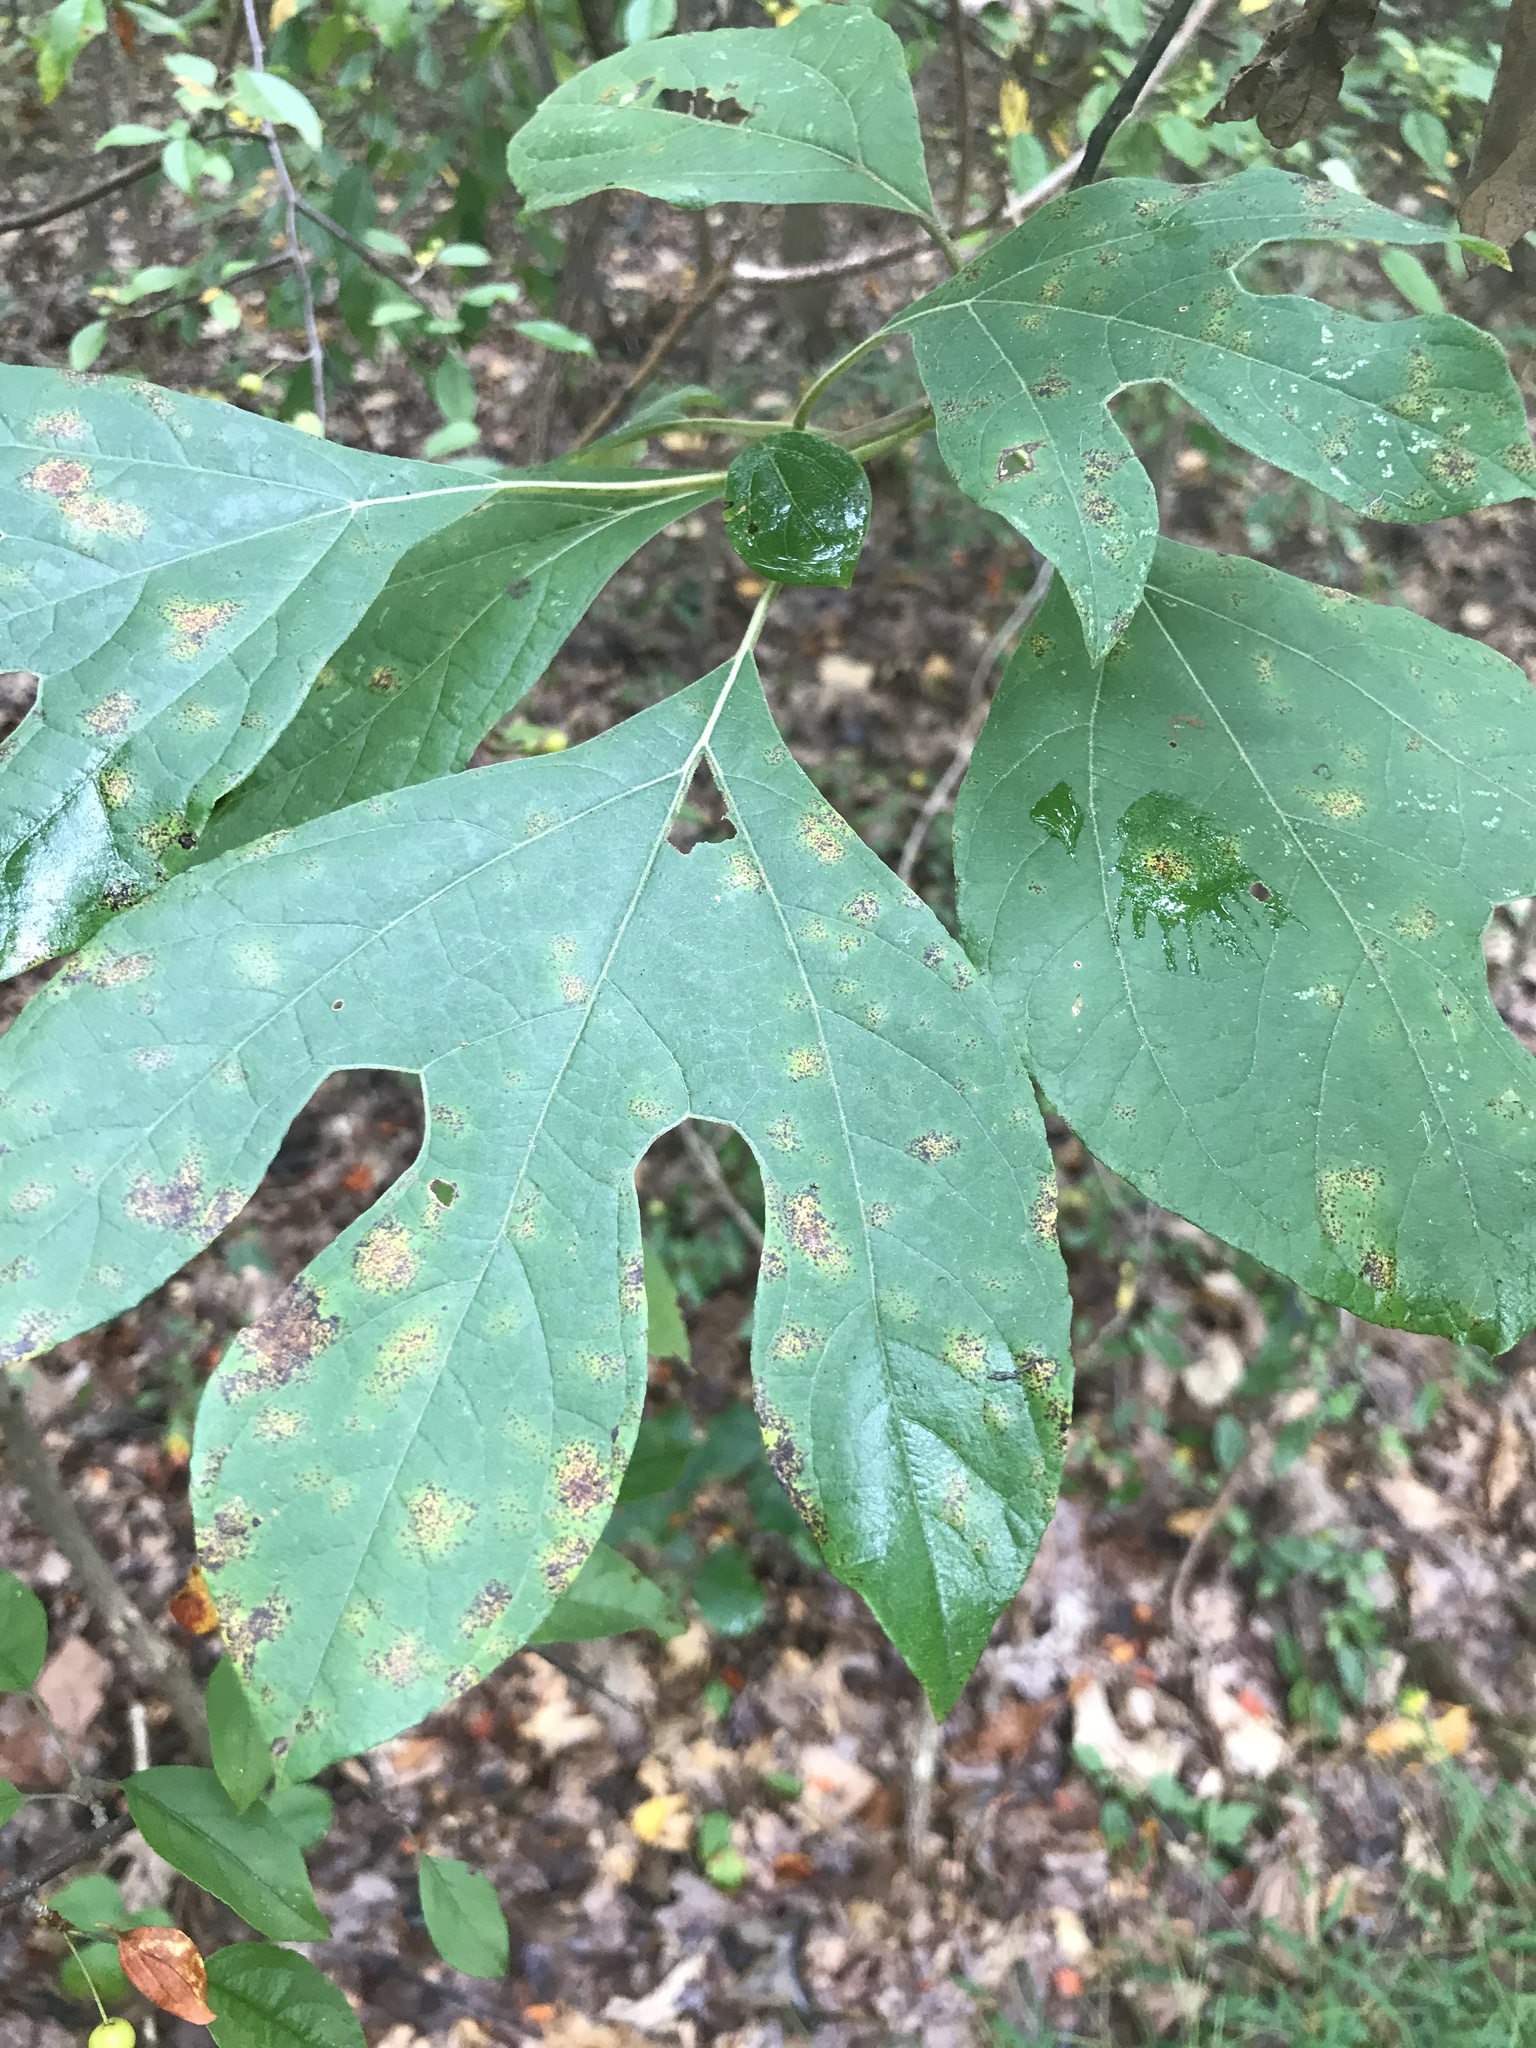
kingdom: Plantae
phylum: Tracheophyta
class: Magnoliopsida
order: Laurales
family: Lauraceae
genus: Sassafras
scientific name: Sassafras albidum
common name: Sassafras
